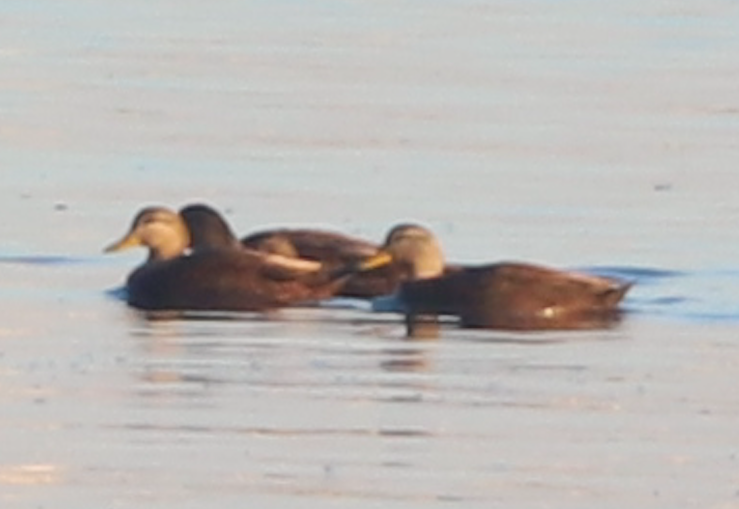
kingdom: Animalia
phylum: Chordata
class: Aves
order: Anseriformes
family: Anatidae
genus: Anas
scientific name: Anas rubripes
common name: American black duck
